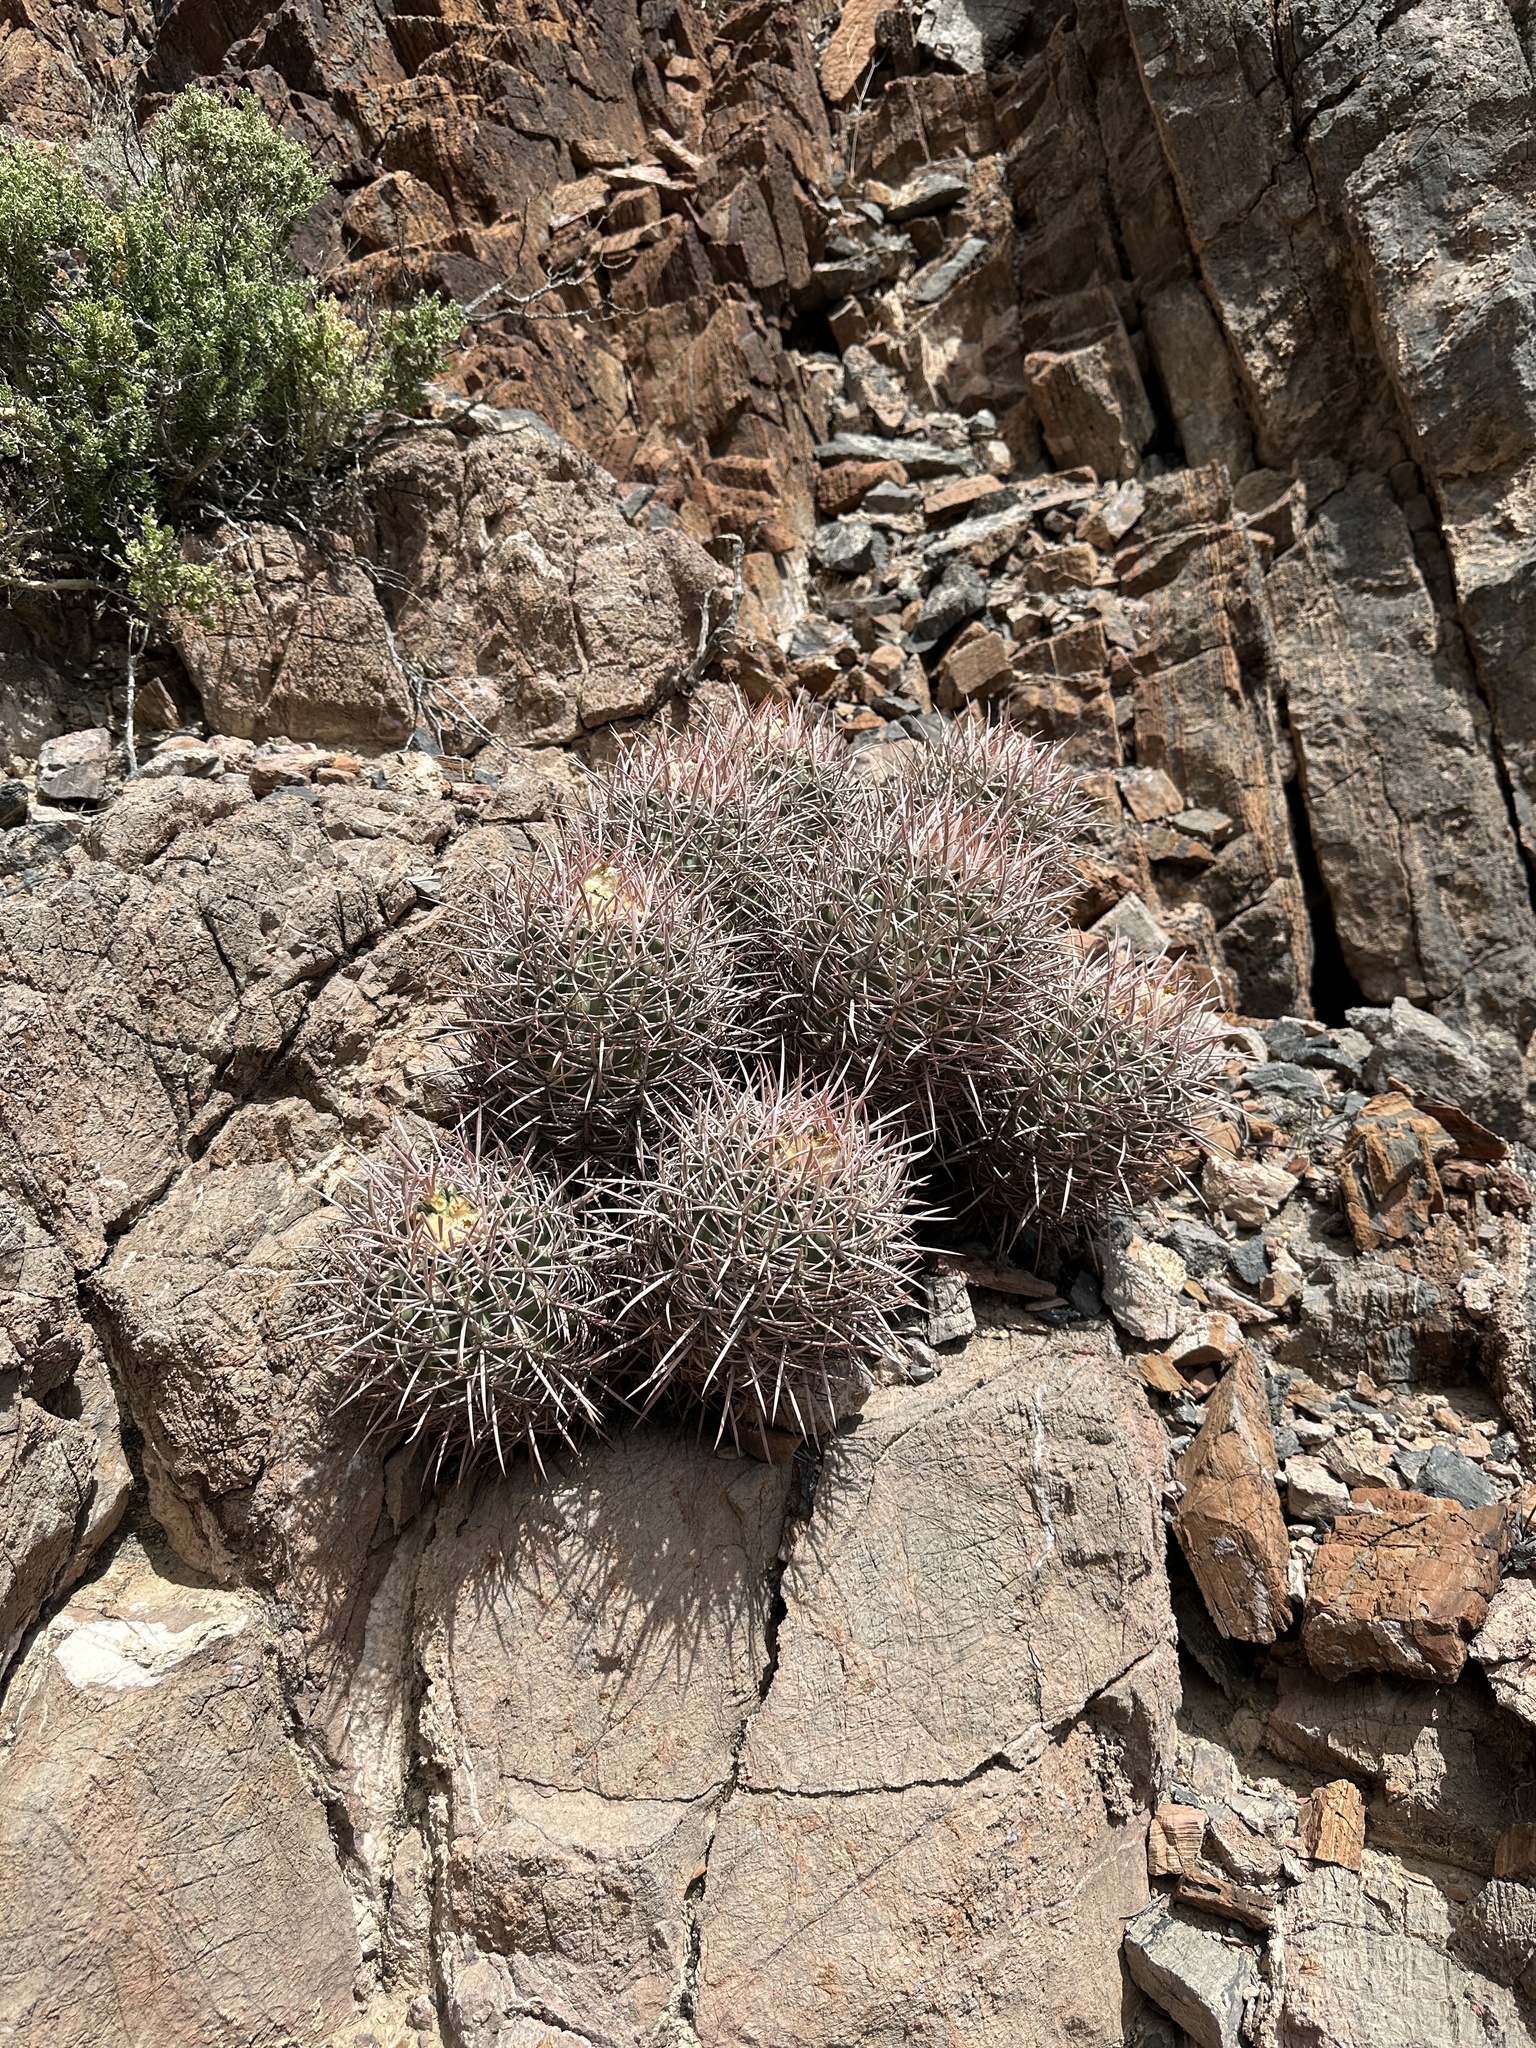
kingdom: Plantae
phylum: Tracheophyta
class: Magnoliopsida
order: Caryophyllales
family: Cactaceae
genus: Echinocactus
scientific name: Echinocactus polycephalus
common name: Cottontop cactus
